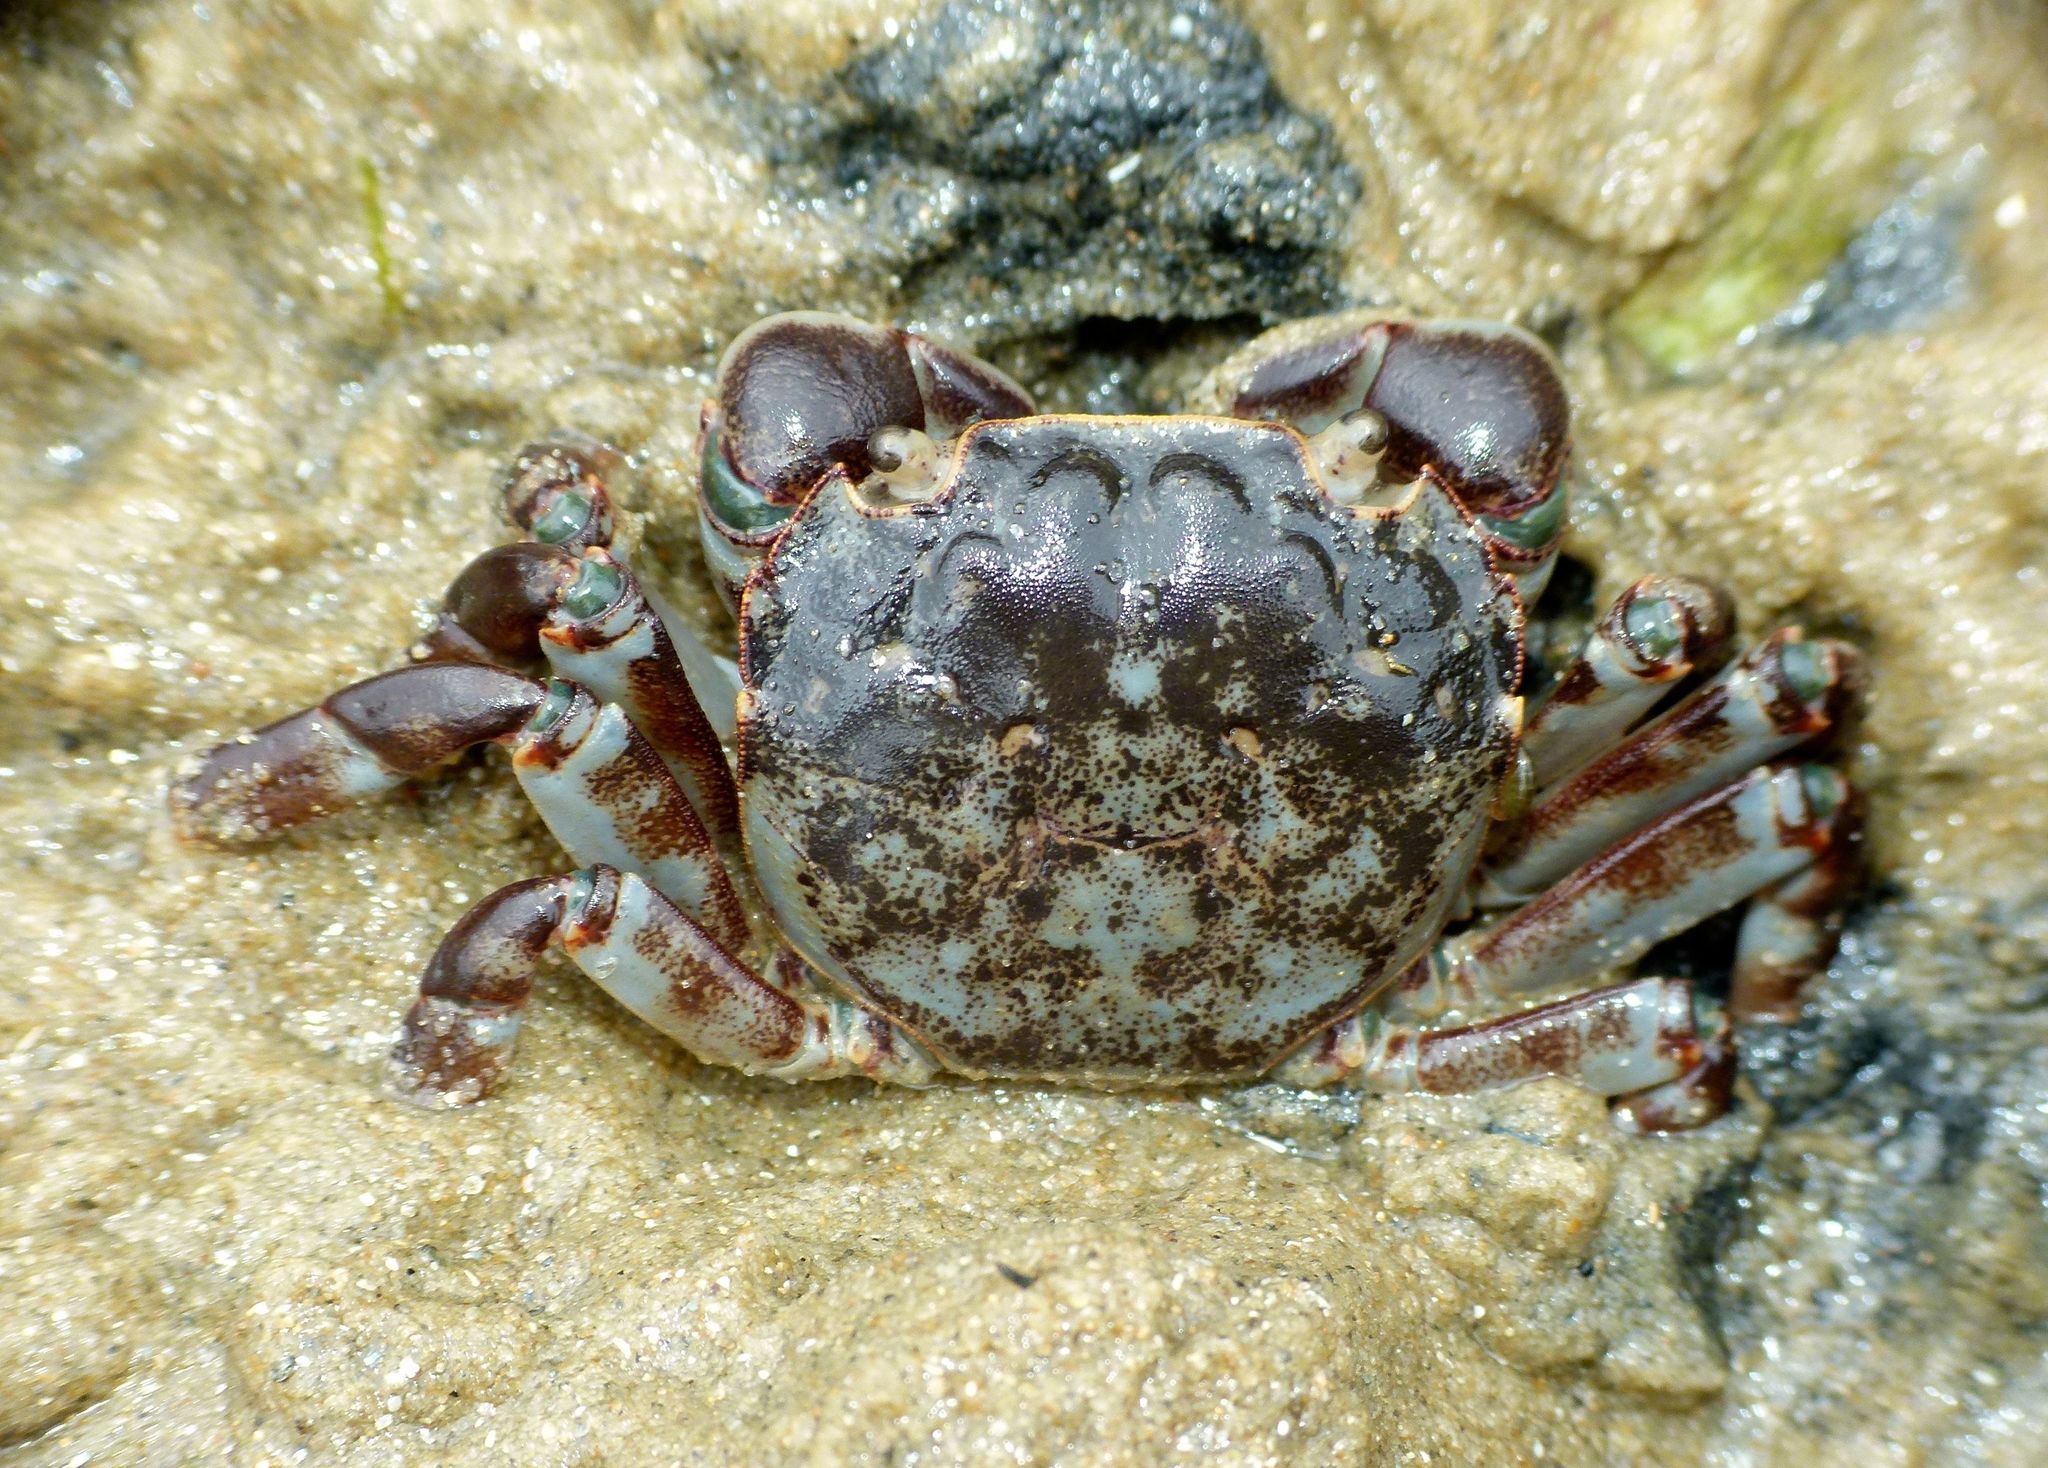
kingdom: Animalia
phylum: Arthropoda
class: Malacostraca
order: Decapoda
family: Varunidae
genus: Hemigrapsus
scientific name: Hemigrapsus sexdentatus
